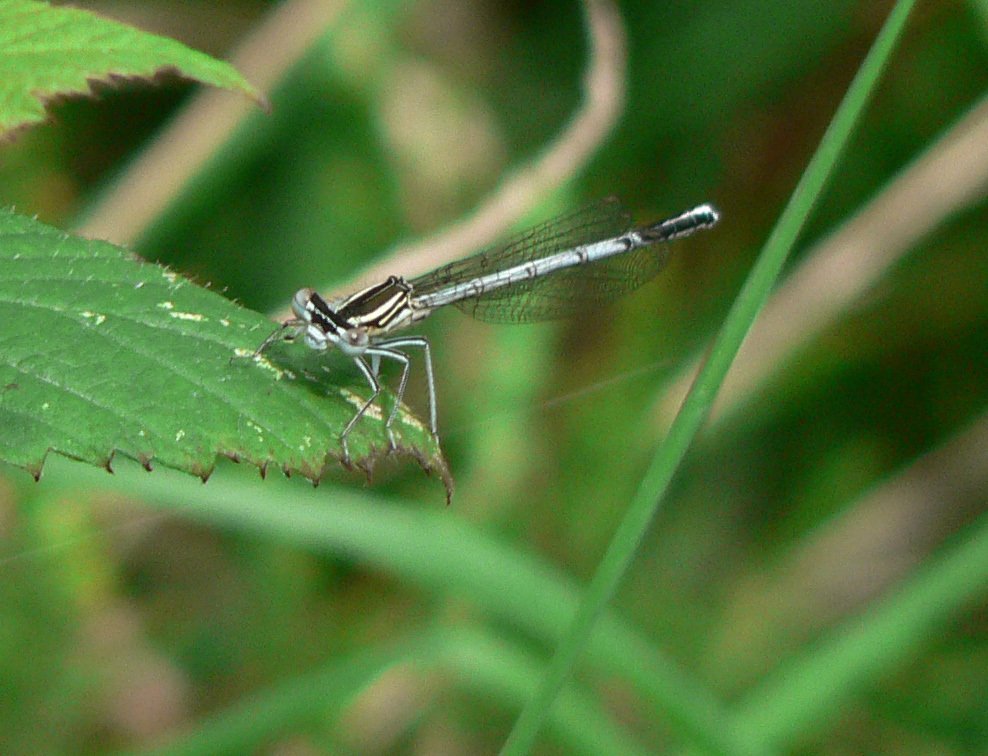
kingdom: Animalia
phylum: Arthropoda
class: Insecta
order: Odonata
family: Platycnemididae
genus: Platycnemis
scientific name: Platycnemis pennipes
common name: White-legged damselfly
